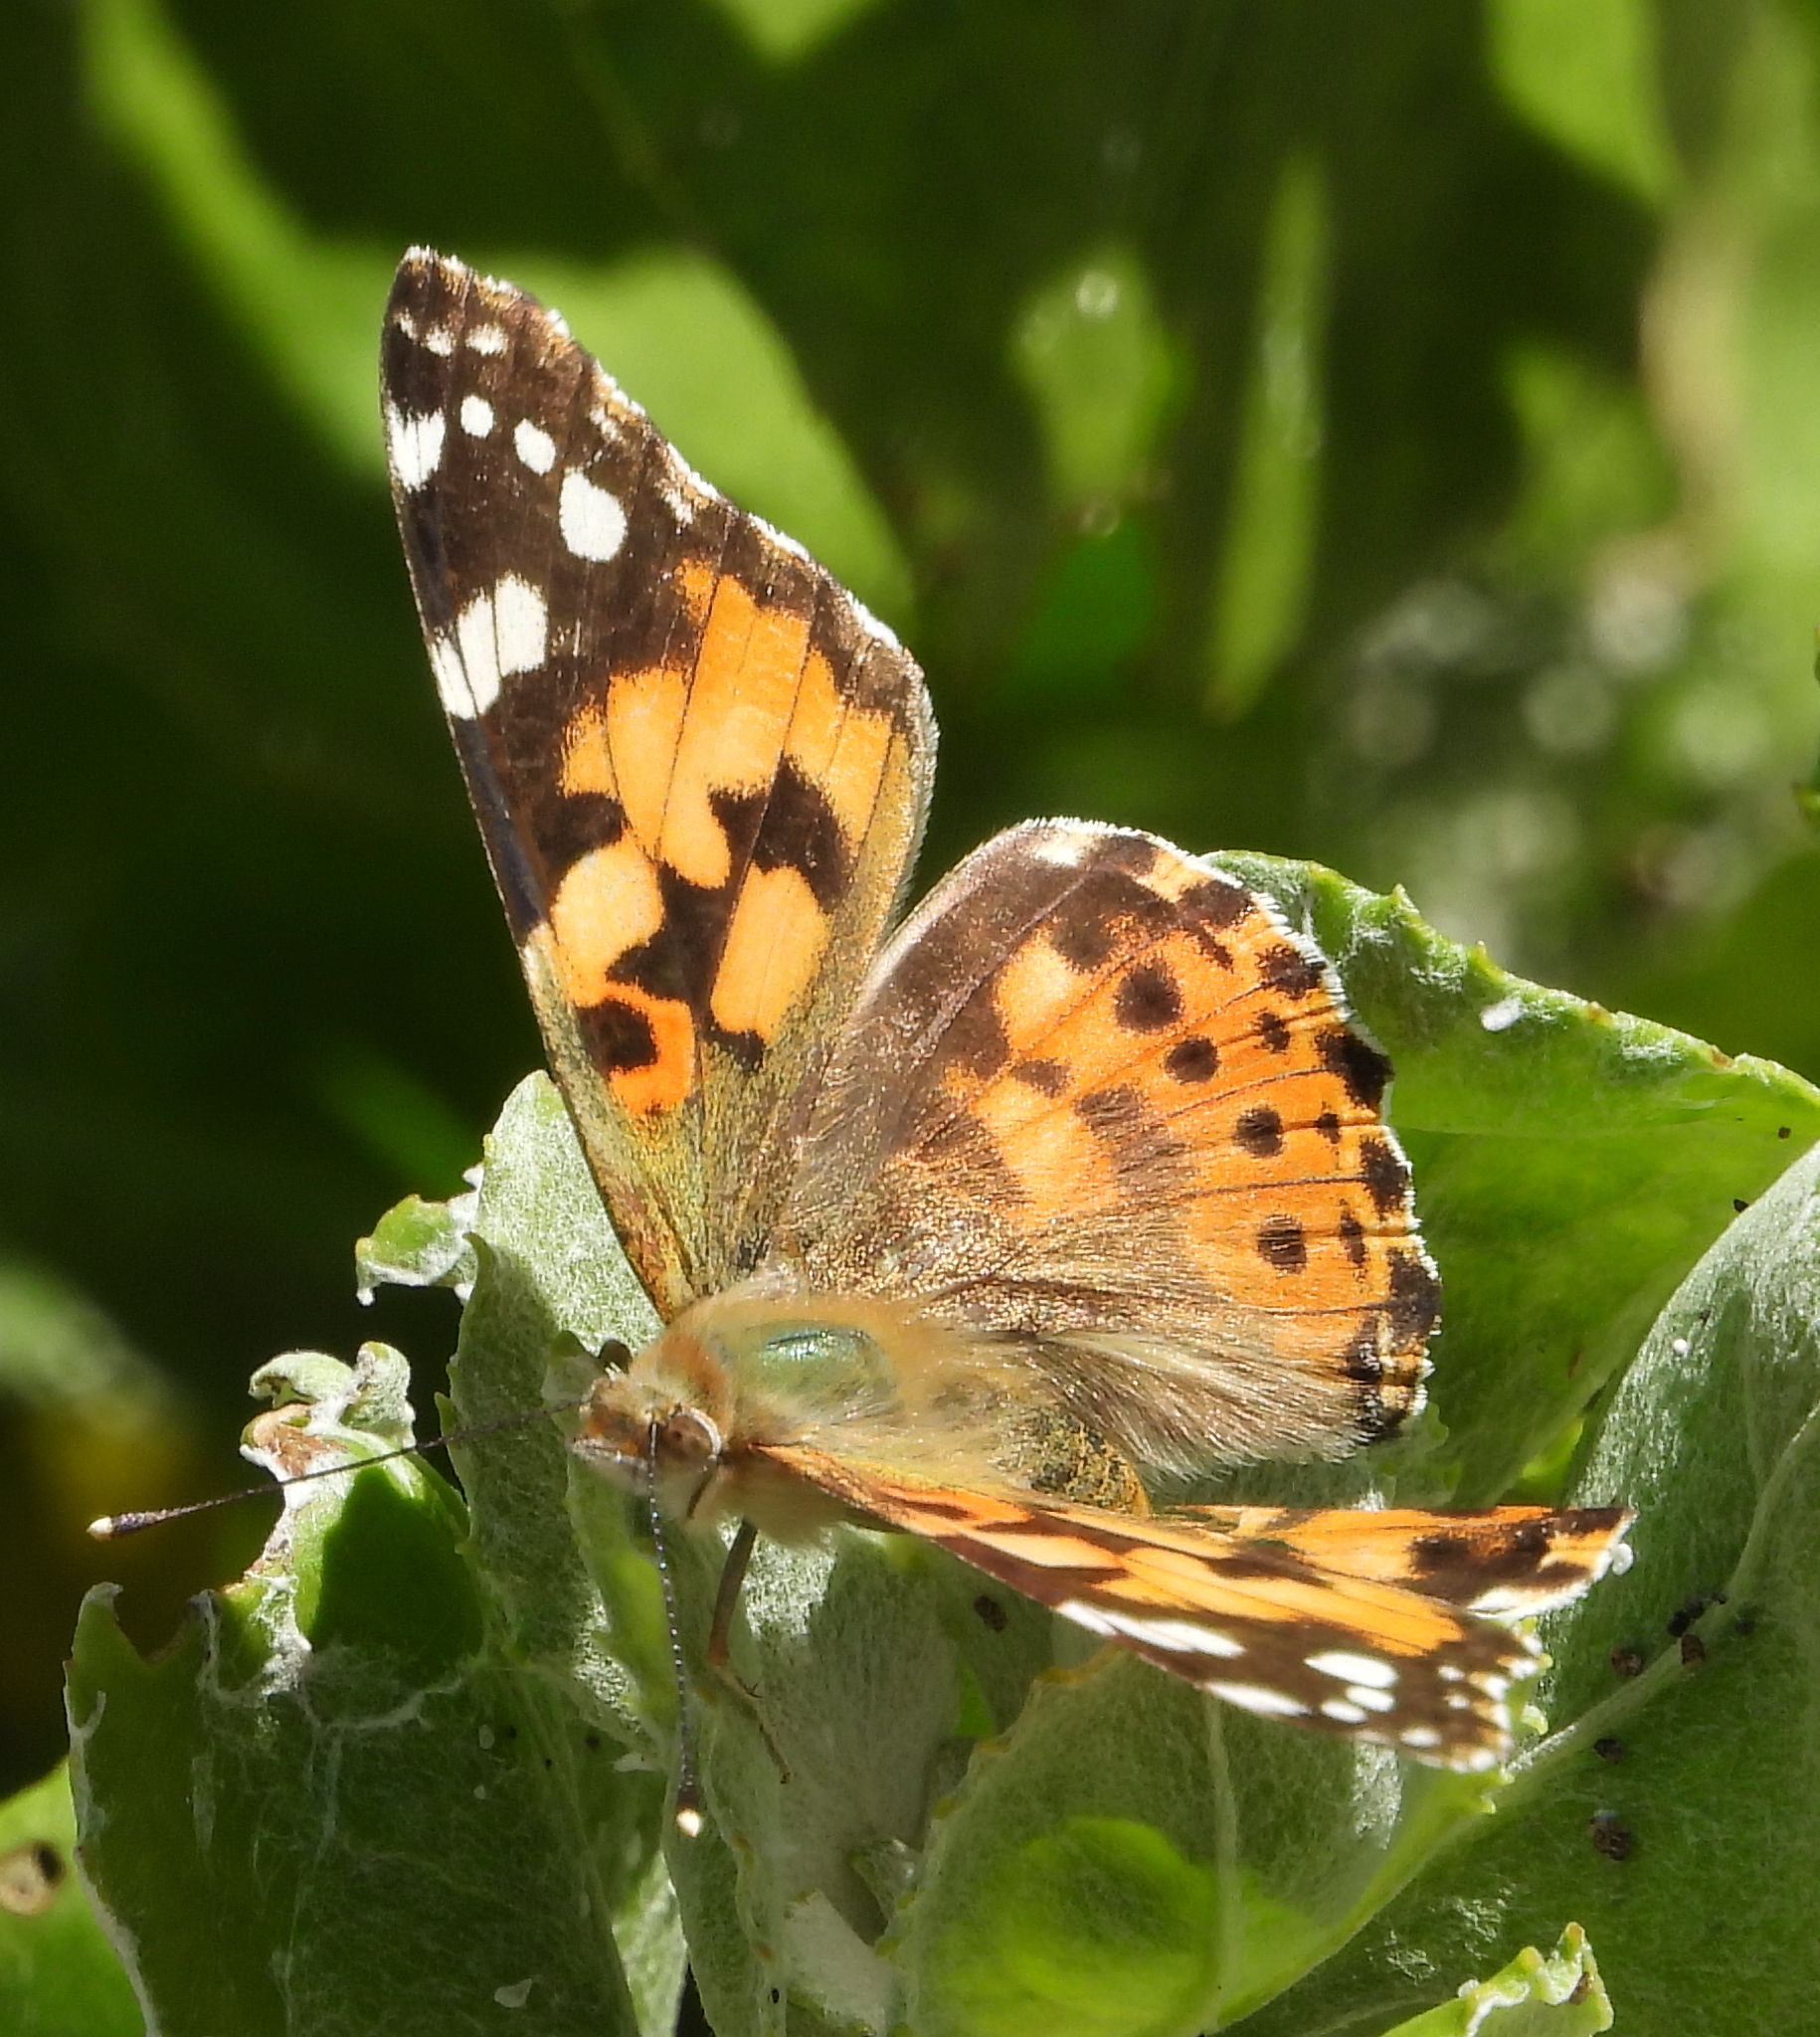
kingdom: Animalia
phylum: Arthropoda
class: Insecta
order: Lepidoptera
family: Nymphalidae
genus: Vanessa
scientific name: Vanessa cardui
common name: Painted lady
